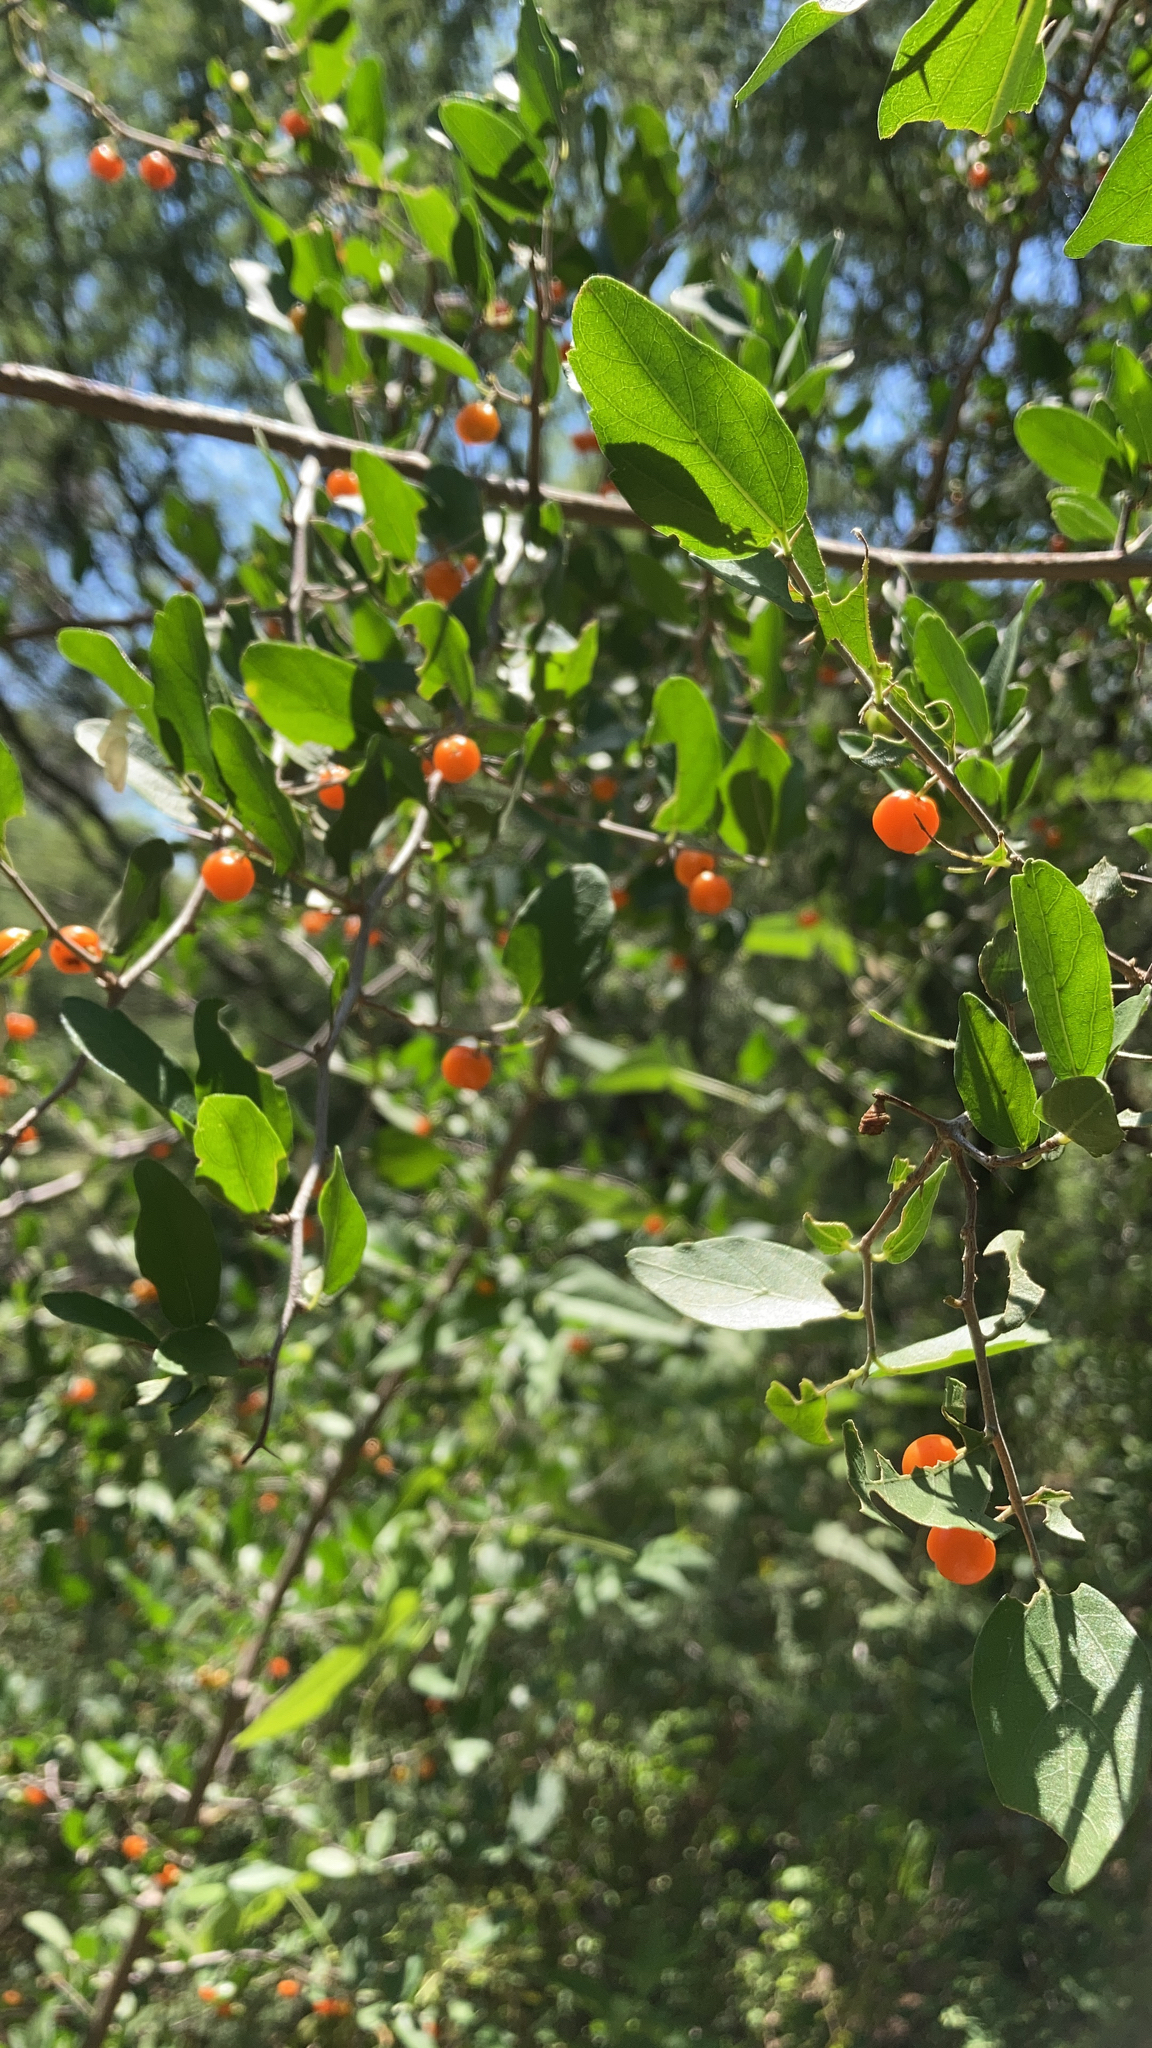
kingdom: Plantae
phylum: Tracheophyta
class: Magnoliopsida
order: Rosales
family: Cannabaceae
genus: Celtis
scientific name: Celtis pallida
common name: Desert hackberry
